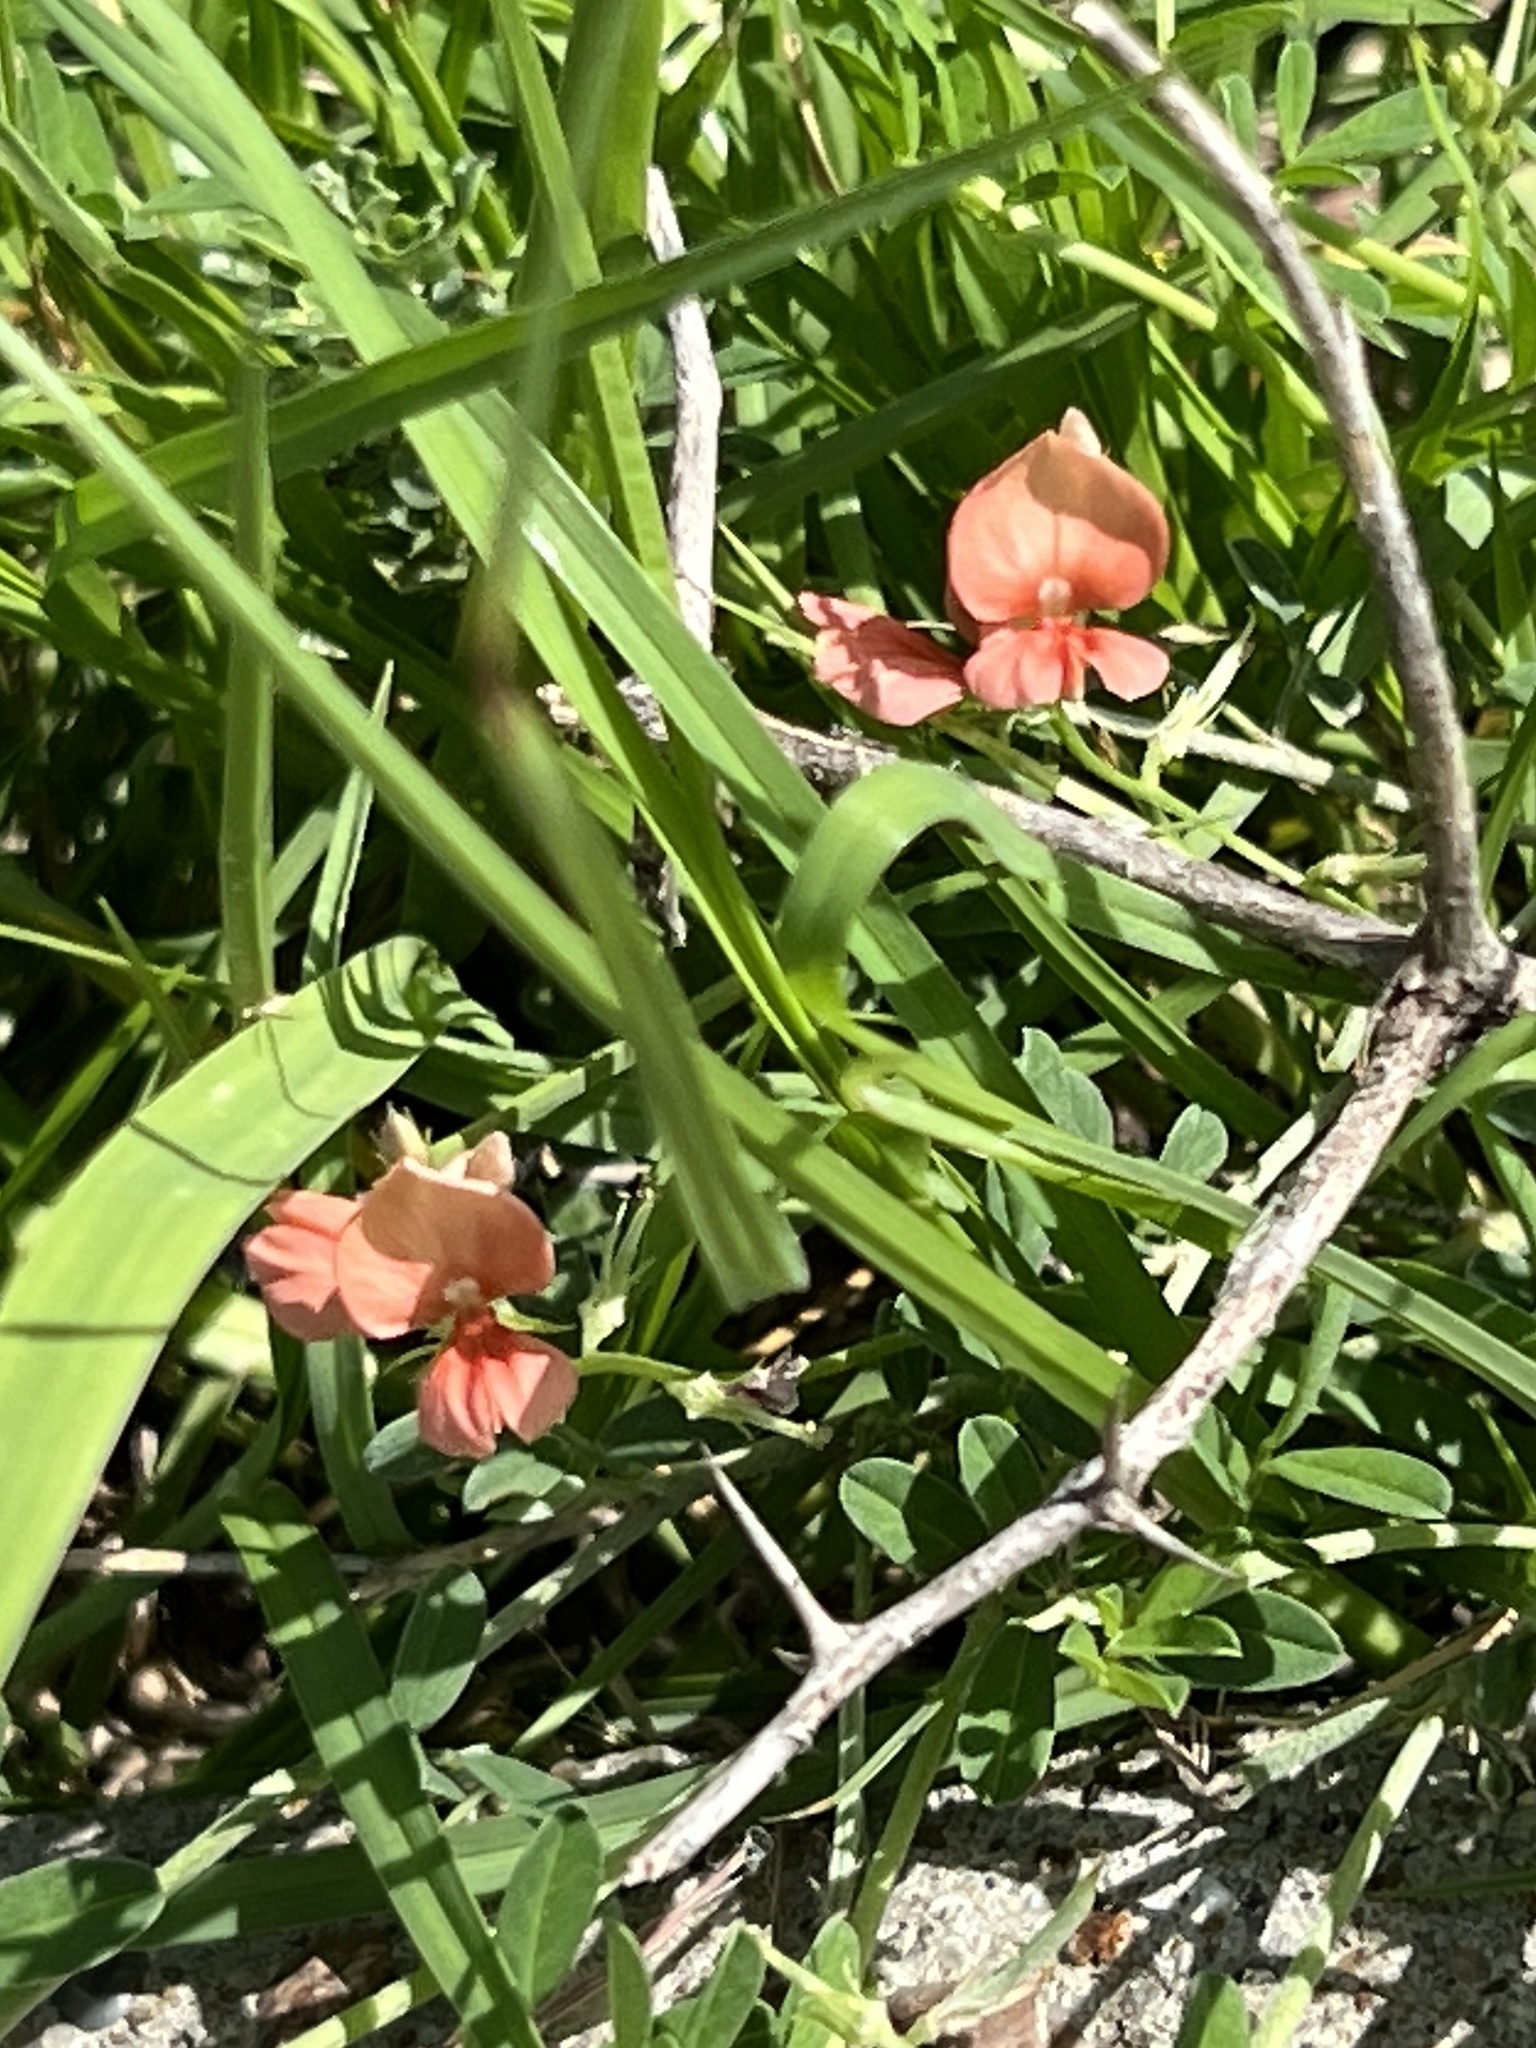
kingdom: Plantae
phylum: Tracheophyta
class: Magnoliopsida
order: Fabales
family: Fabaceae
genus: Indigofera
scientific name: Indigofera miniata
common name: Coast indigo
